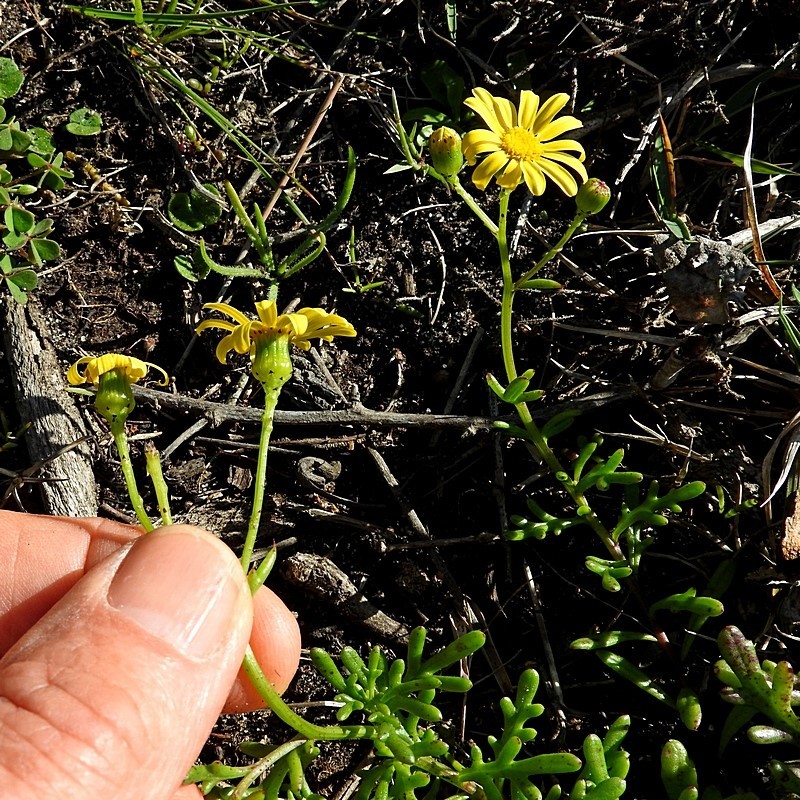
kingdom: Plantae
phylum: Tracheophyta
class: Magnoliopsida
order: Asterales
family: Asteraceae
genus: Senecio
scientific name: Senecio pinnatifolius
